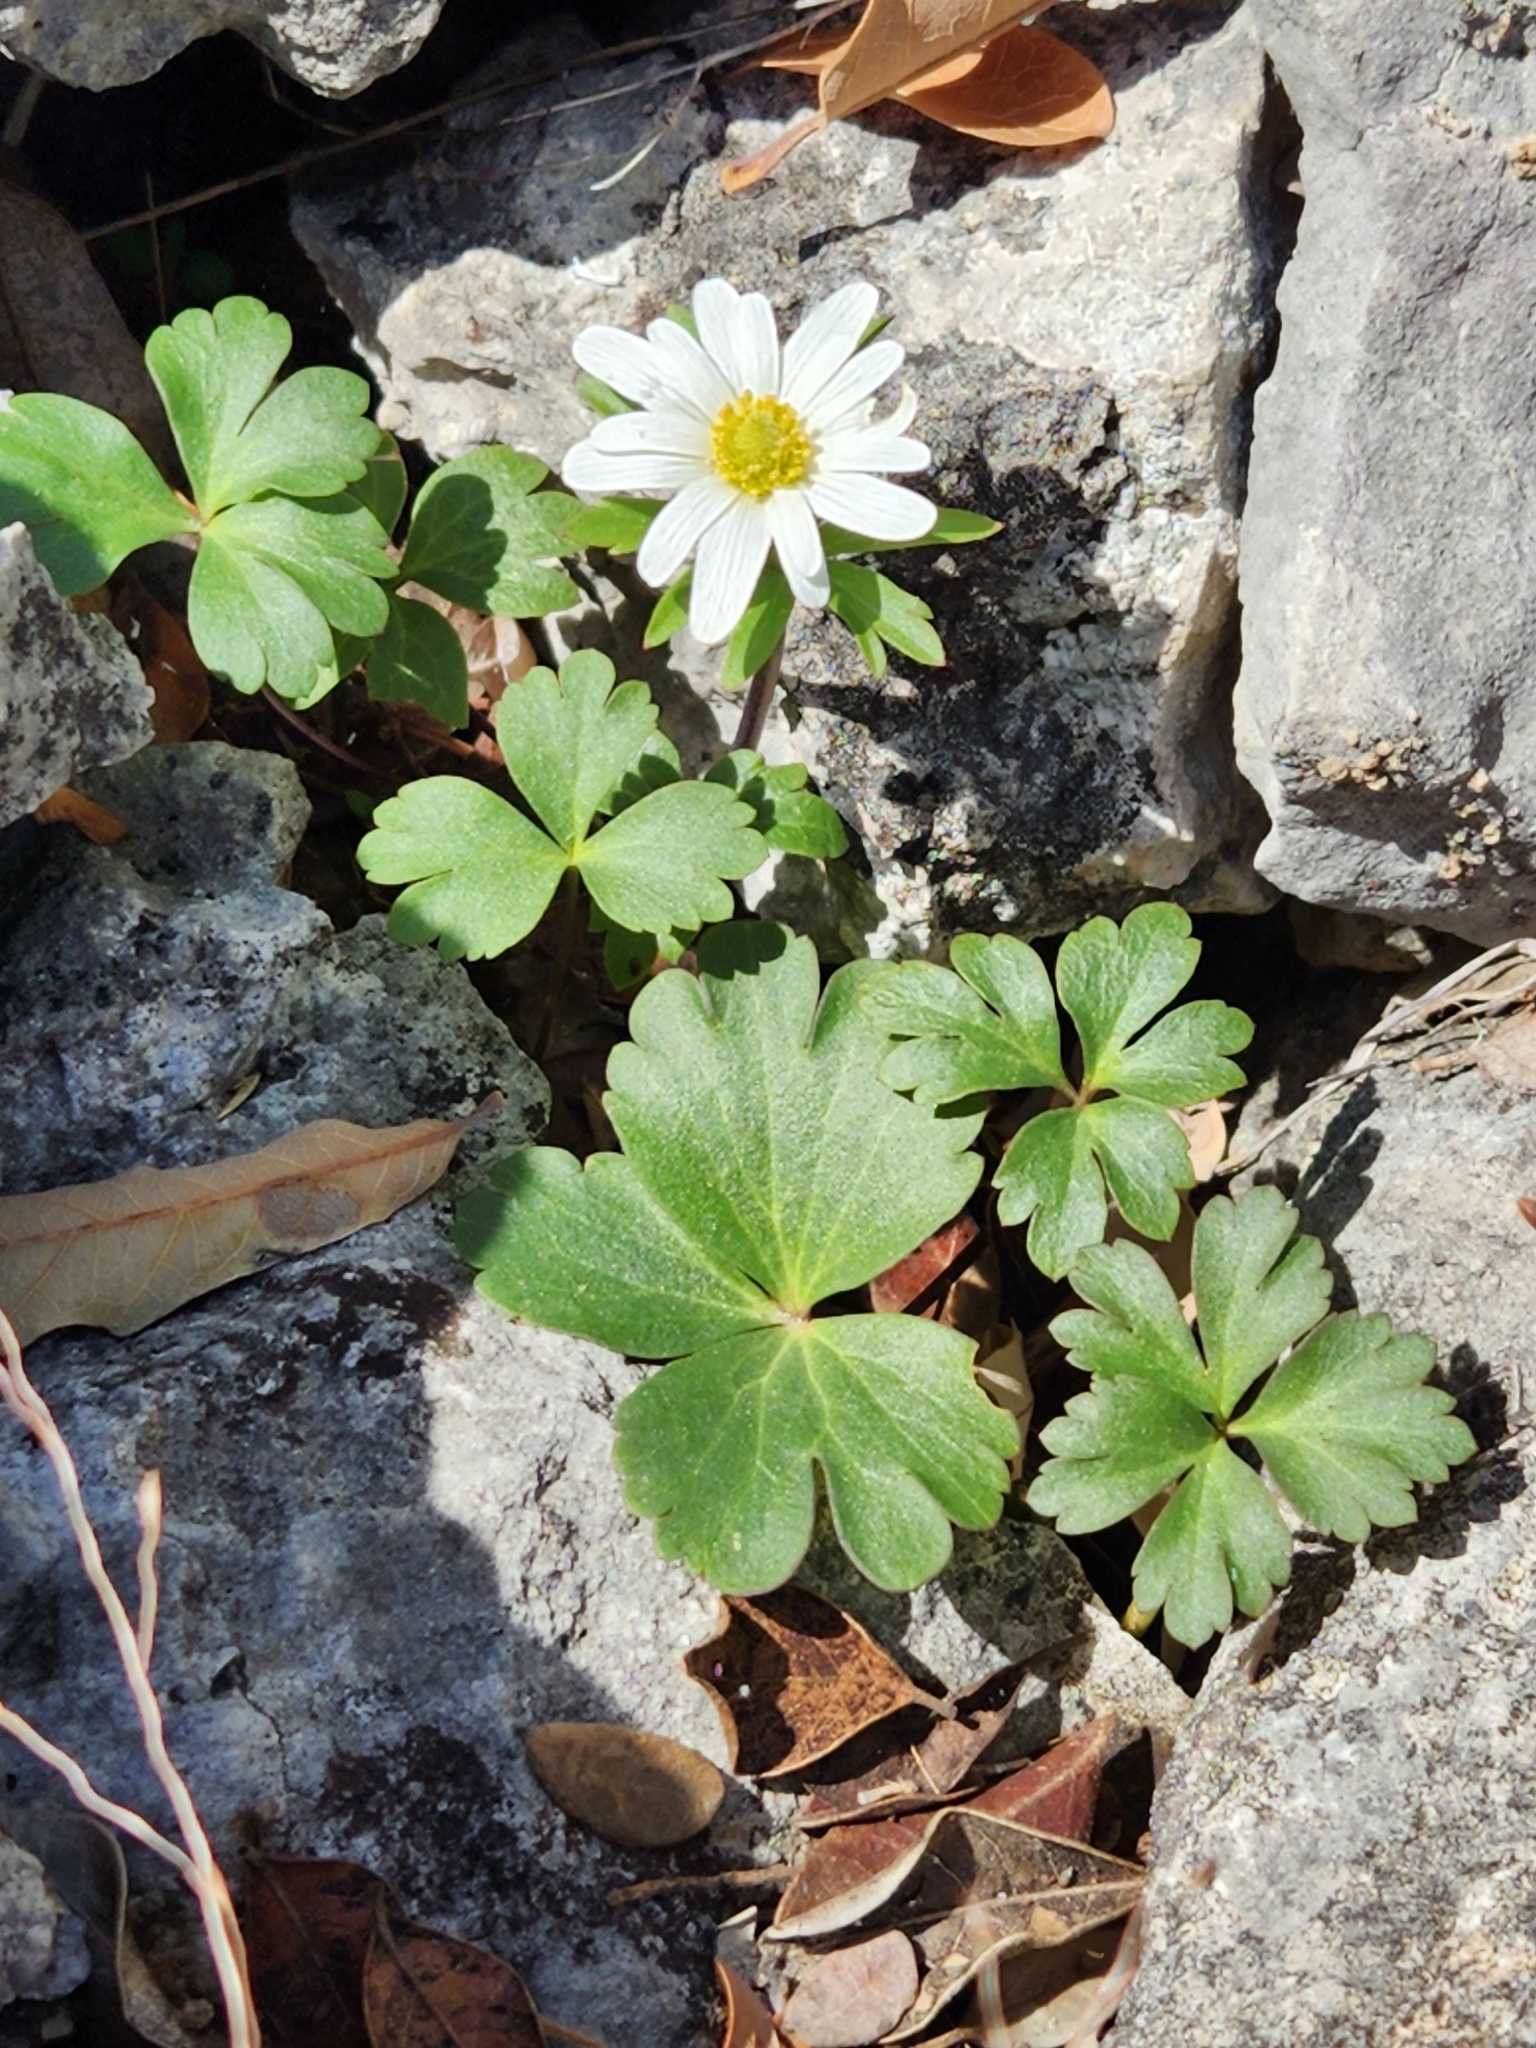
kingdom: Plantae
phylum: Tracheophyta
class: Magnoliopsida
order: Ranunculales
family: Ranunculaceae
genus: Anemone
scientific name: Anemone edwardsiana
